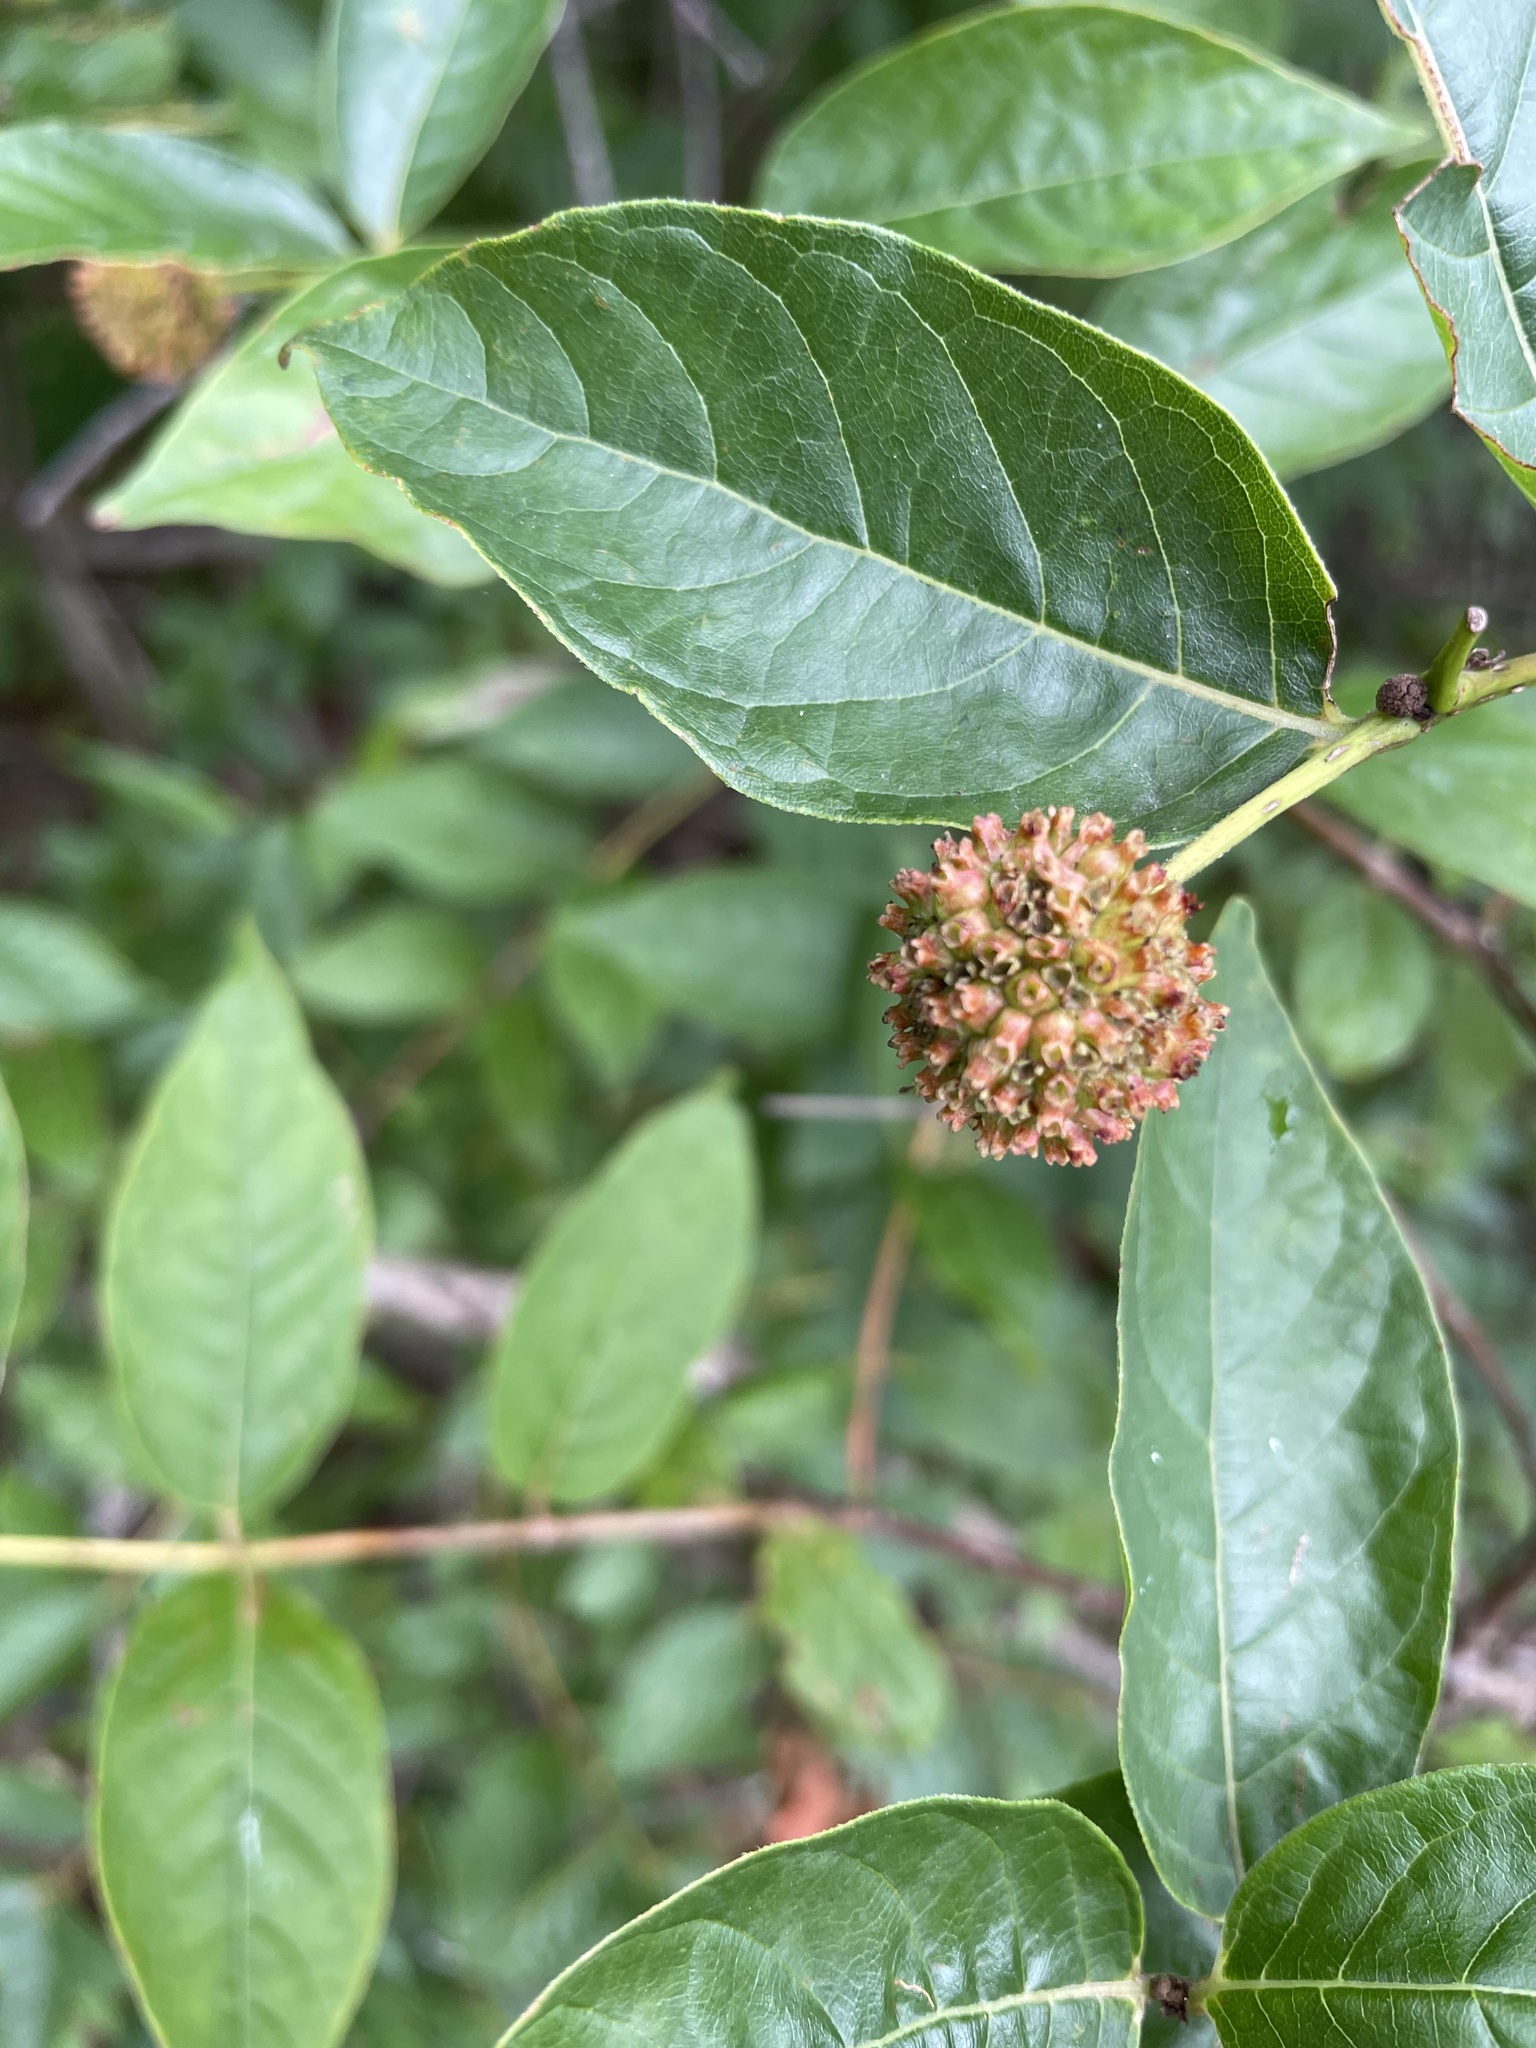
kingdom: Plantae
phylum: Tracheophyta
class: Magnoliopsida
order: Gentianales
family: Rubiaceae
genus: Cephalanthus
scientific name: Cephalanthus occidentalis
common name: Button-willow
